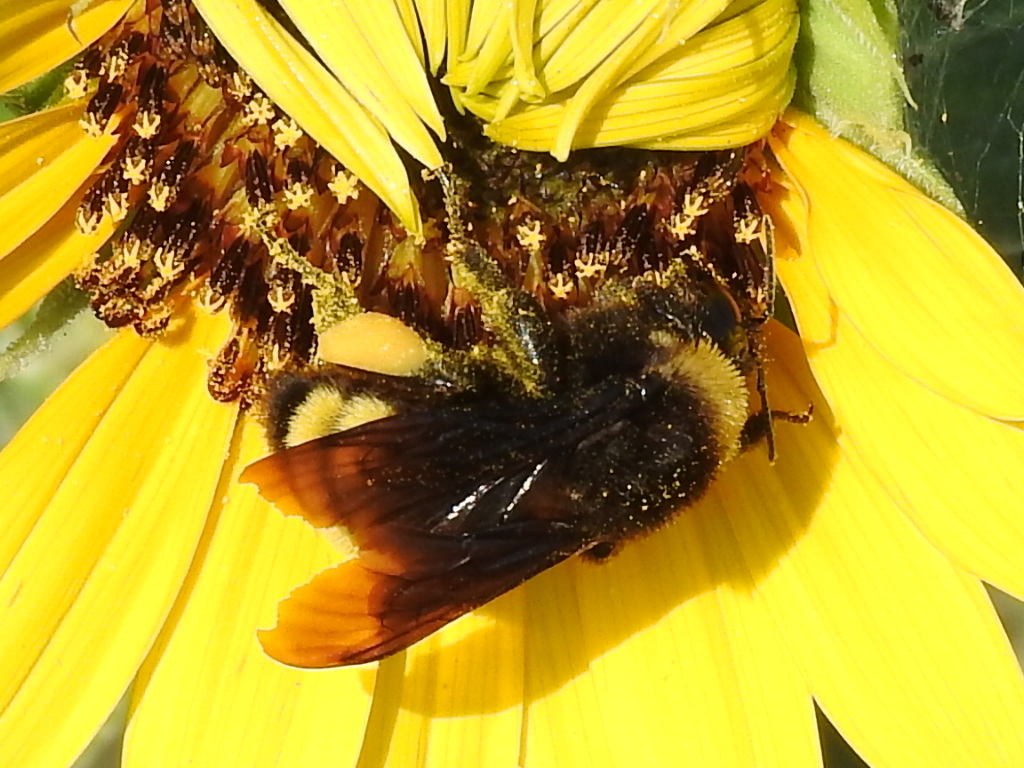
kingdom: Animalia
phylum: Arthropoda
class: Insecta
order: Hymenoptera
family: Apidae
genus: Bombus
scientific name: Bombus pensylvanicus
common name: Bumble bee
